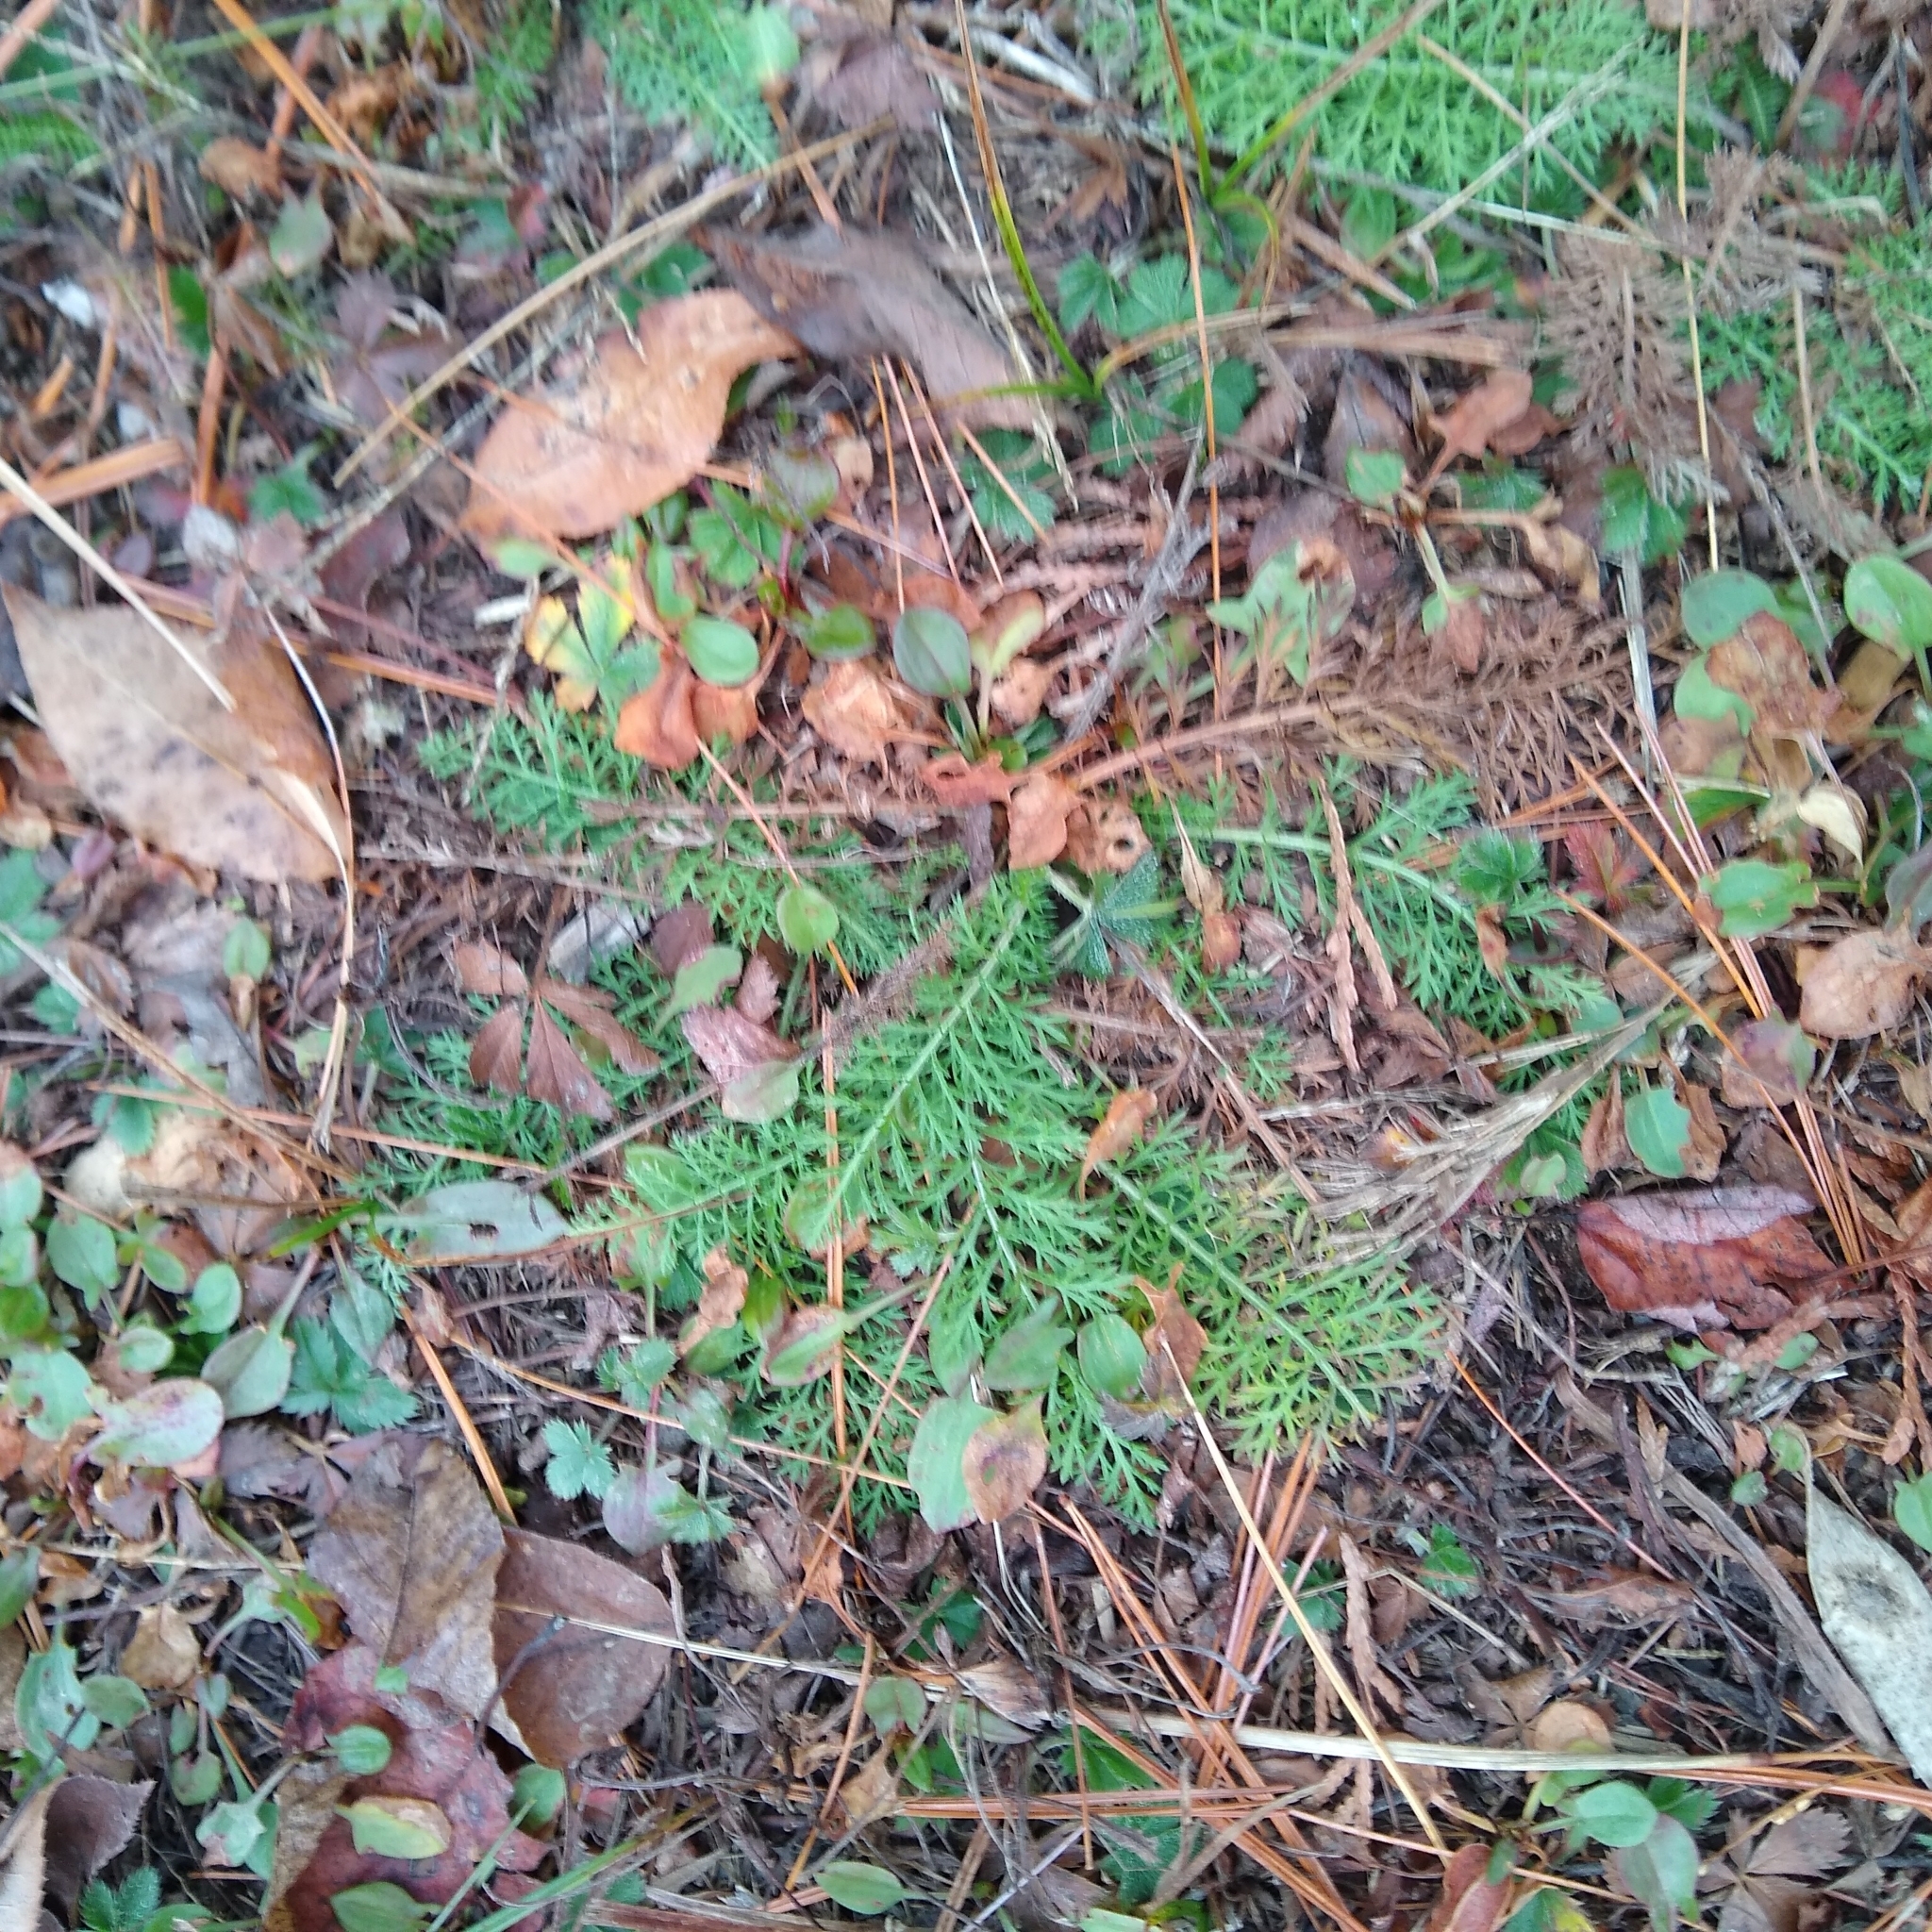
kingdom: Plantae
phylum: Tracheophyta
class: Magnoliopsida
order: Asterales
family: Asteraceae
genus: Achillea
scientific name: Achillea millefolium
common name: Yarrow
